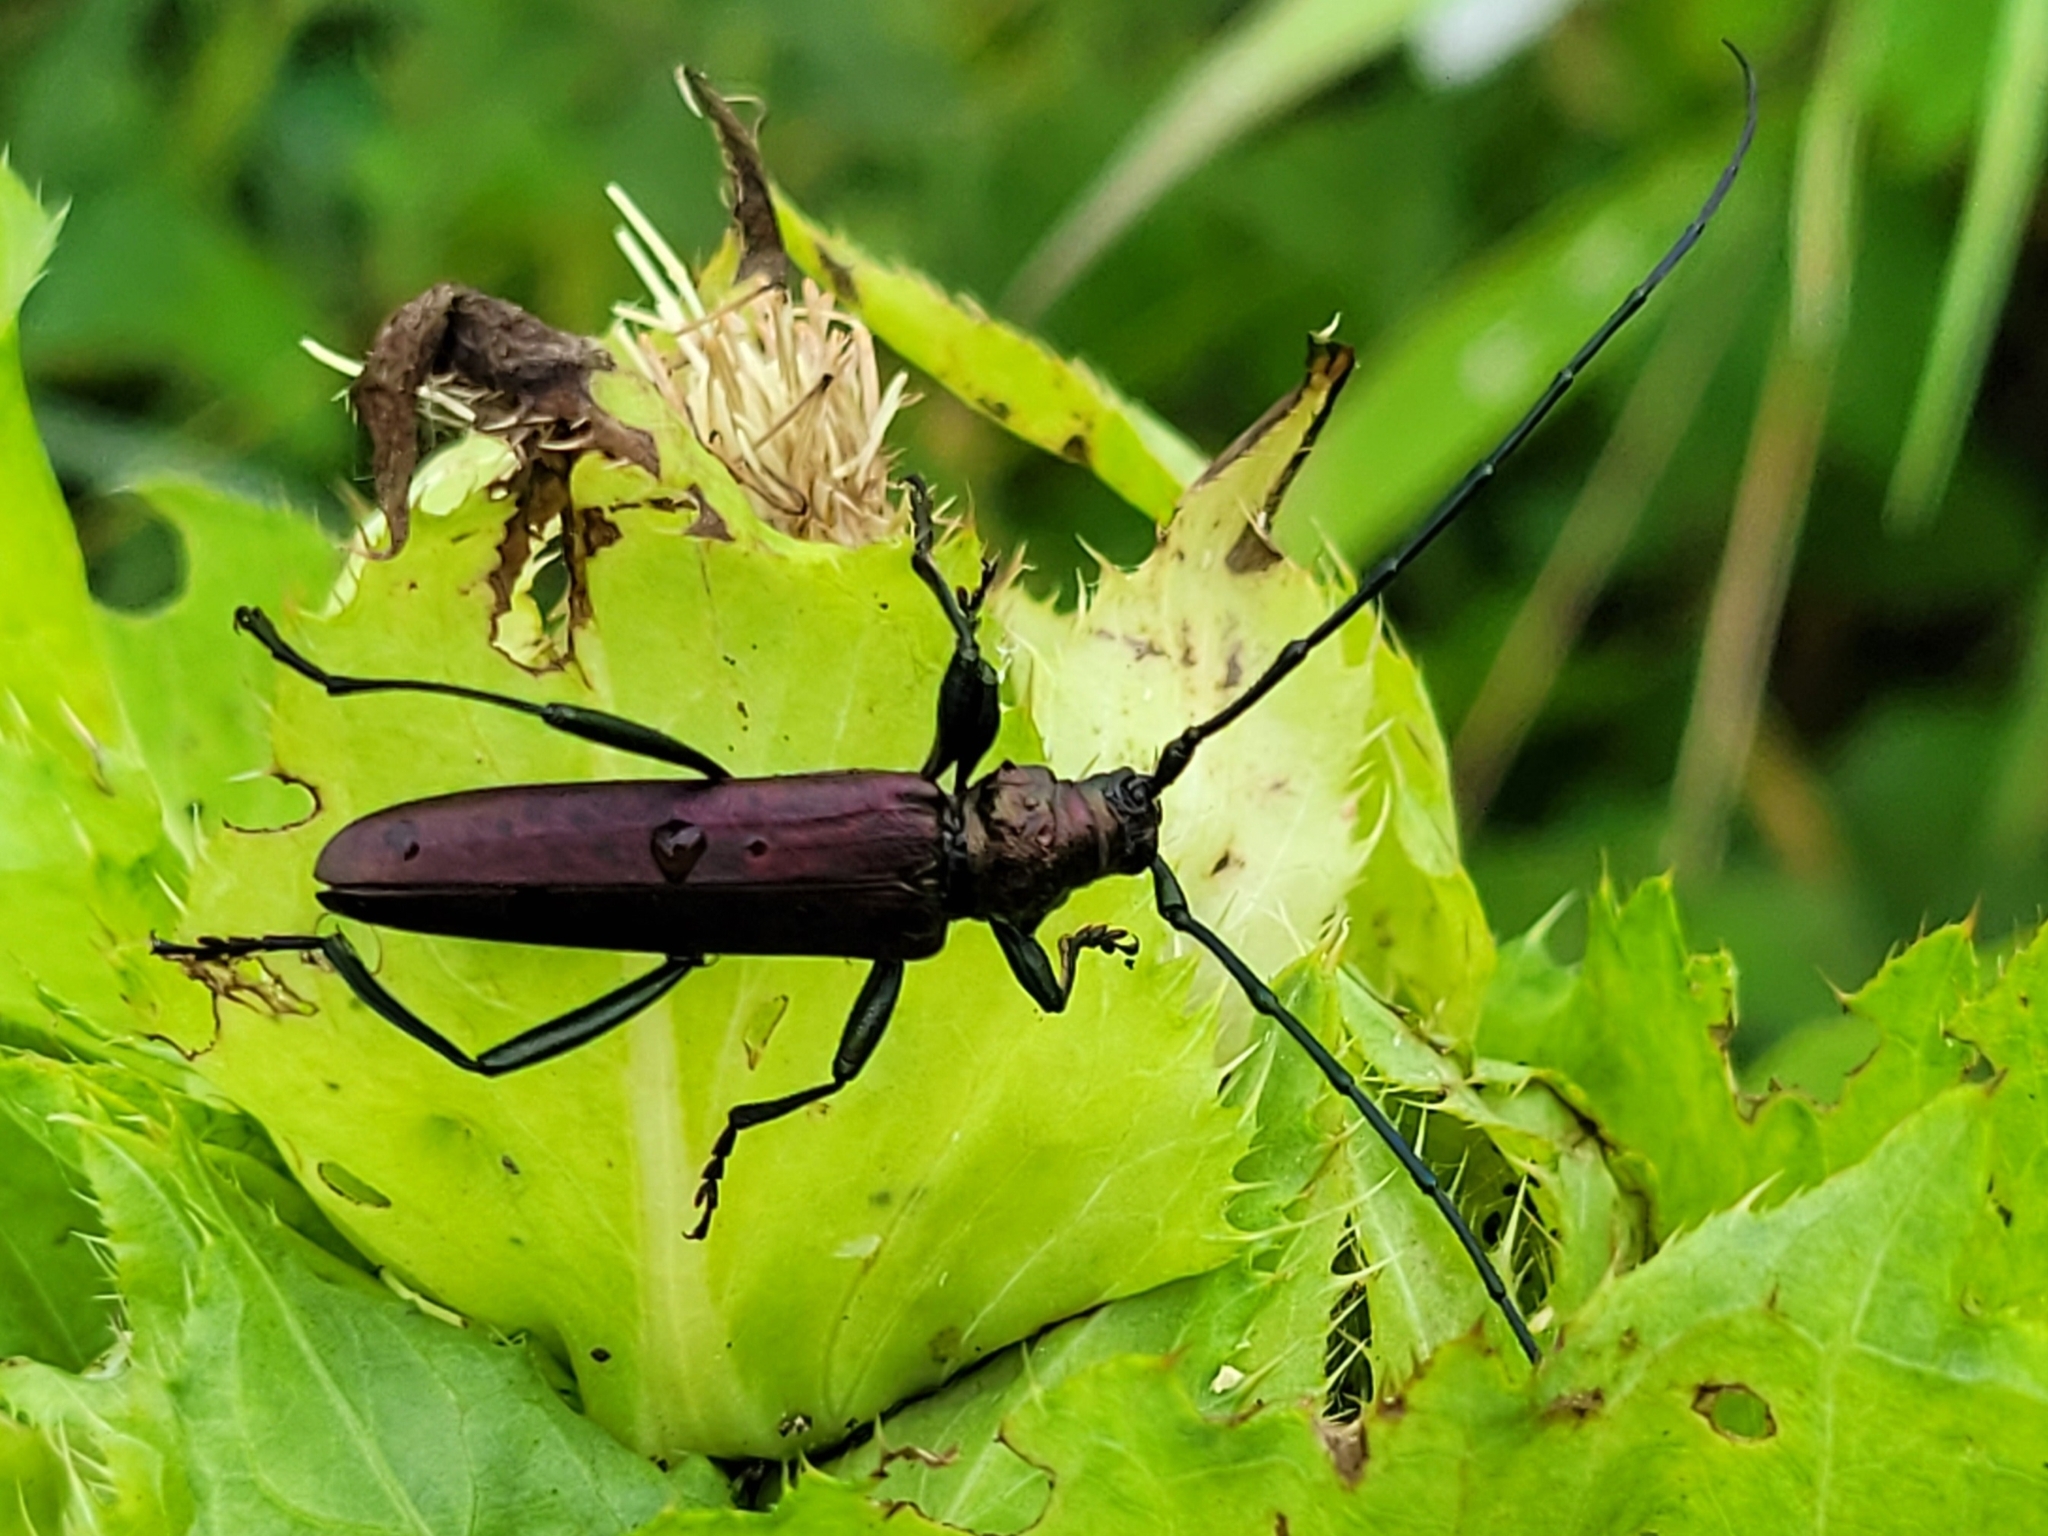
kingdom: Animalia
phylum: Arthropoda
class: Insecta
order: Coleoptera
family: Cerambycidae
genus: Aromia
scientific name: Aromia moschata
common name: Musk beetle
